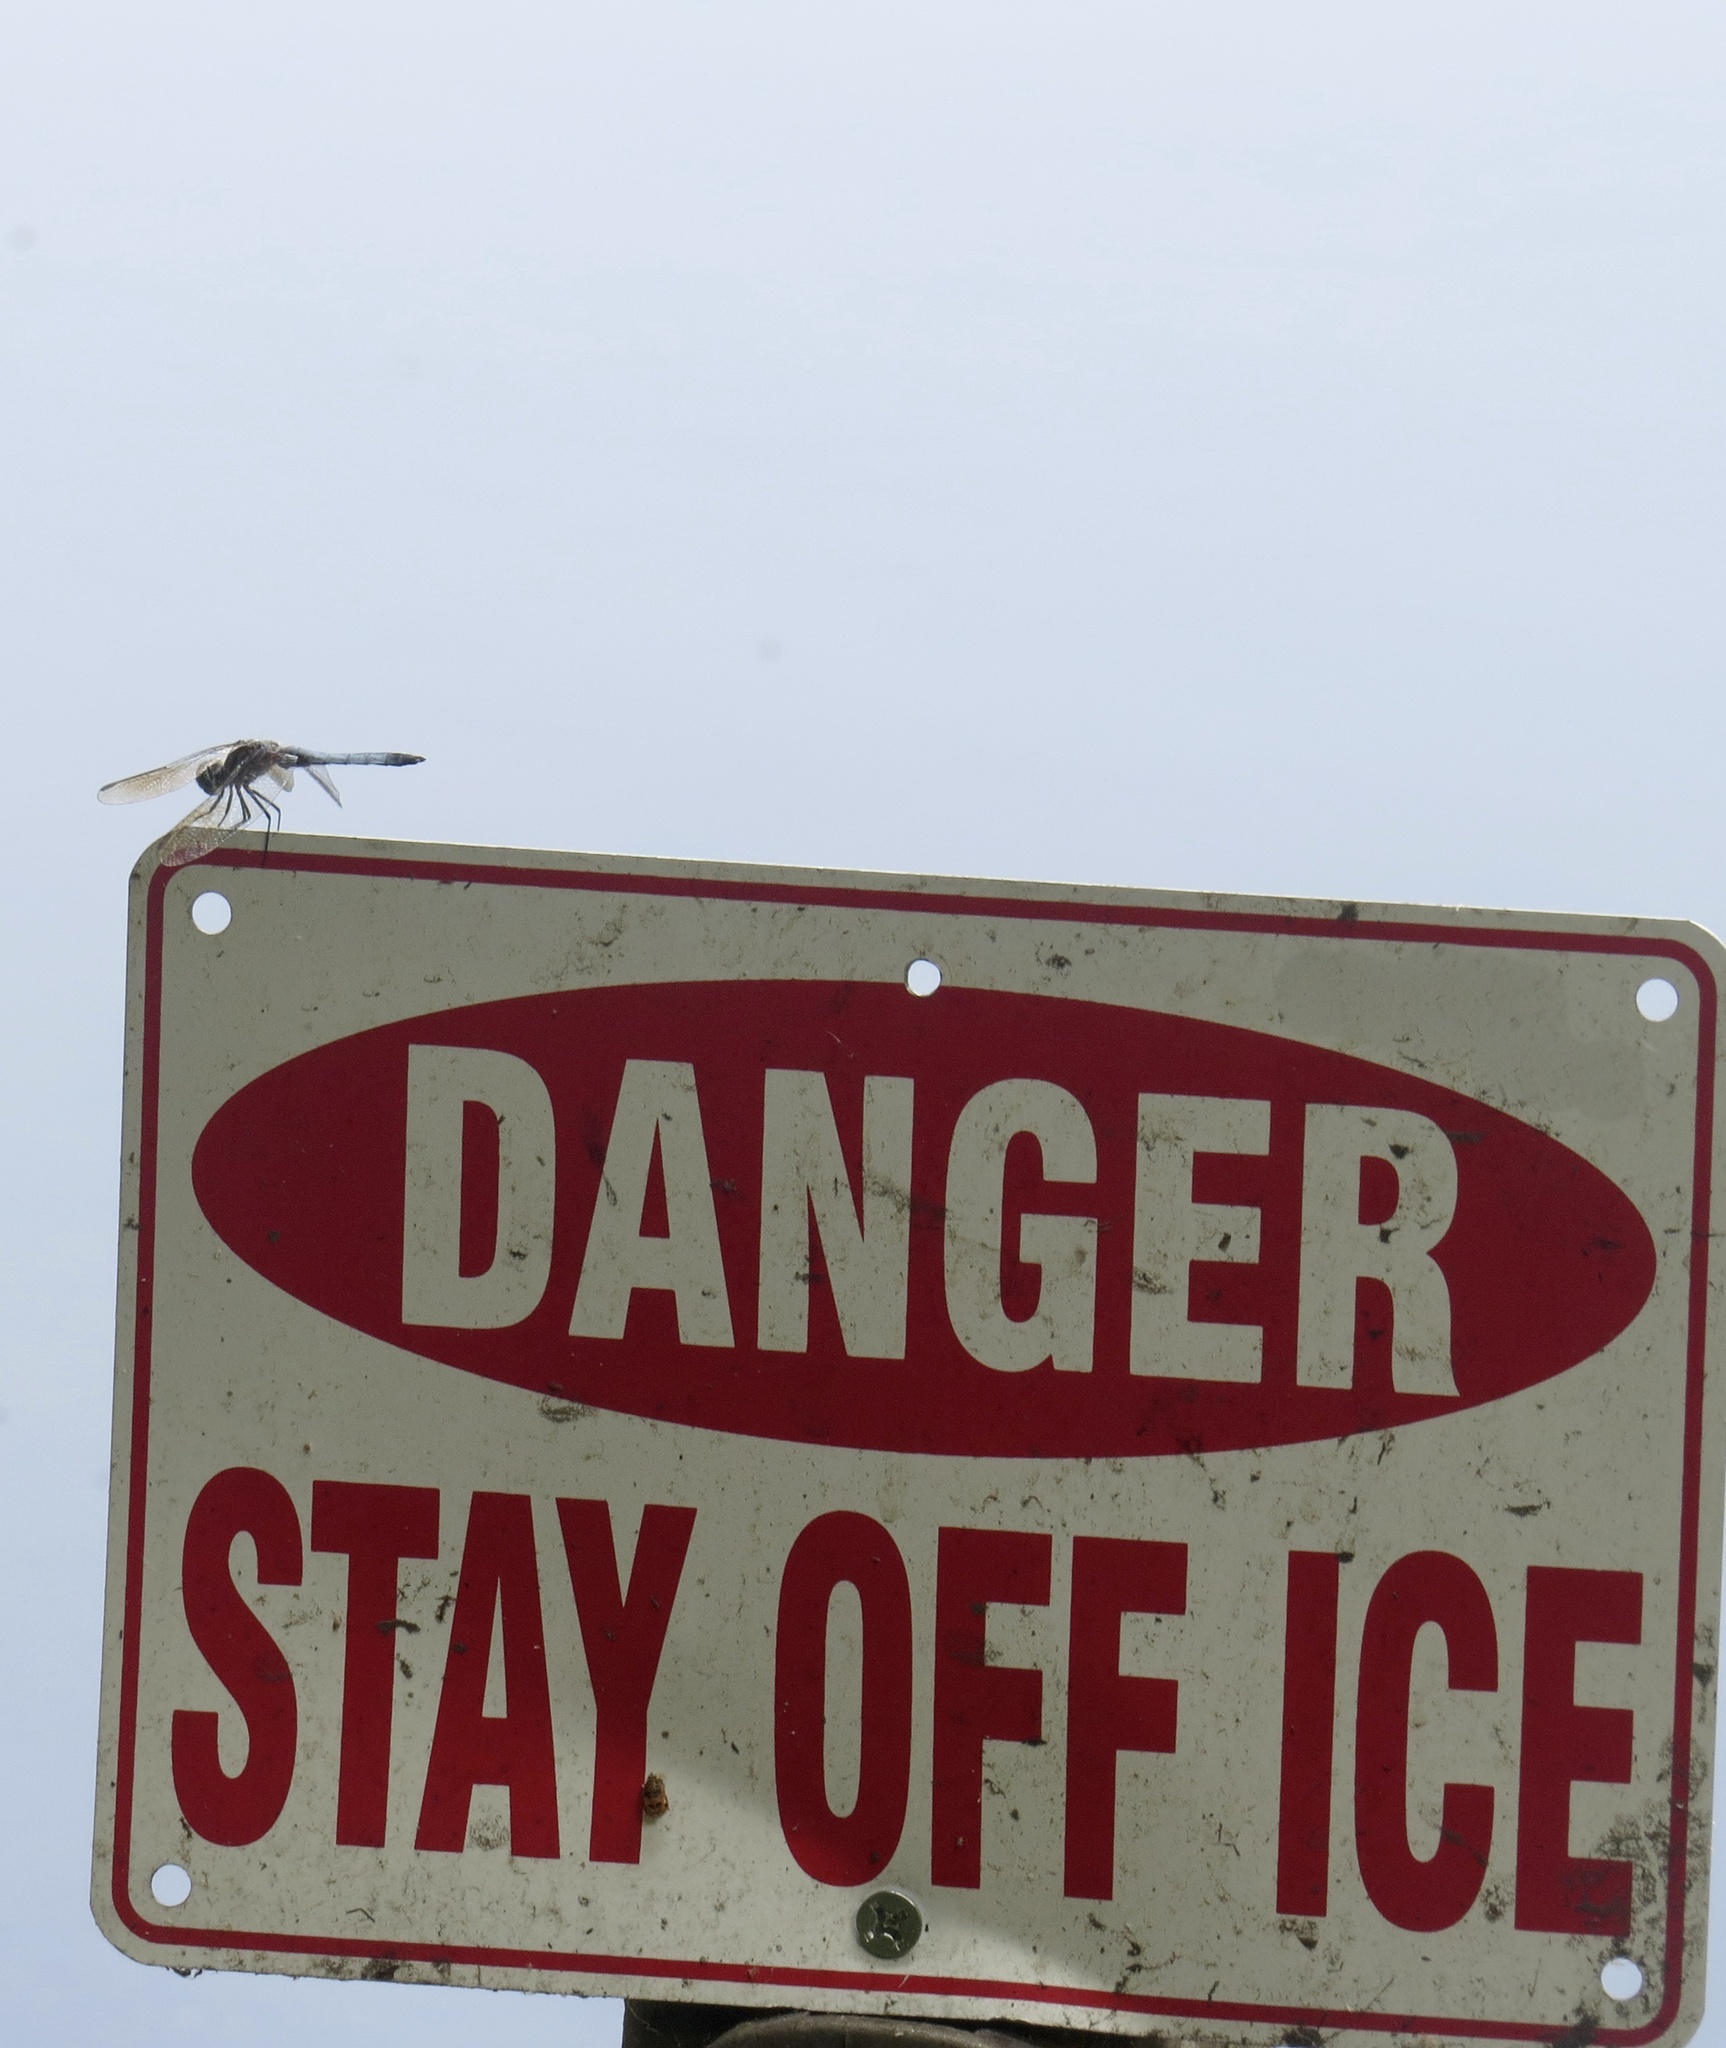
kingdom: Animalia
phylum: Arthropoda
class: Insecta
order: Odonata
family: Libellulidae
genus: Pachydiplax
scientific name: Pachydiplax longipennis
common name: Blue dasher
